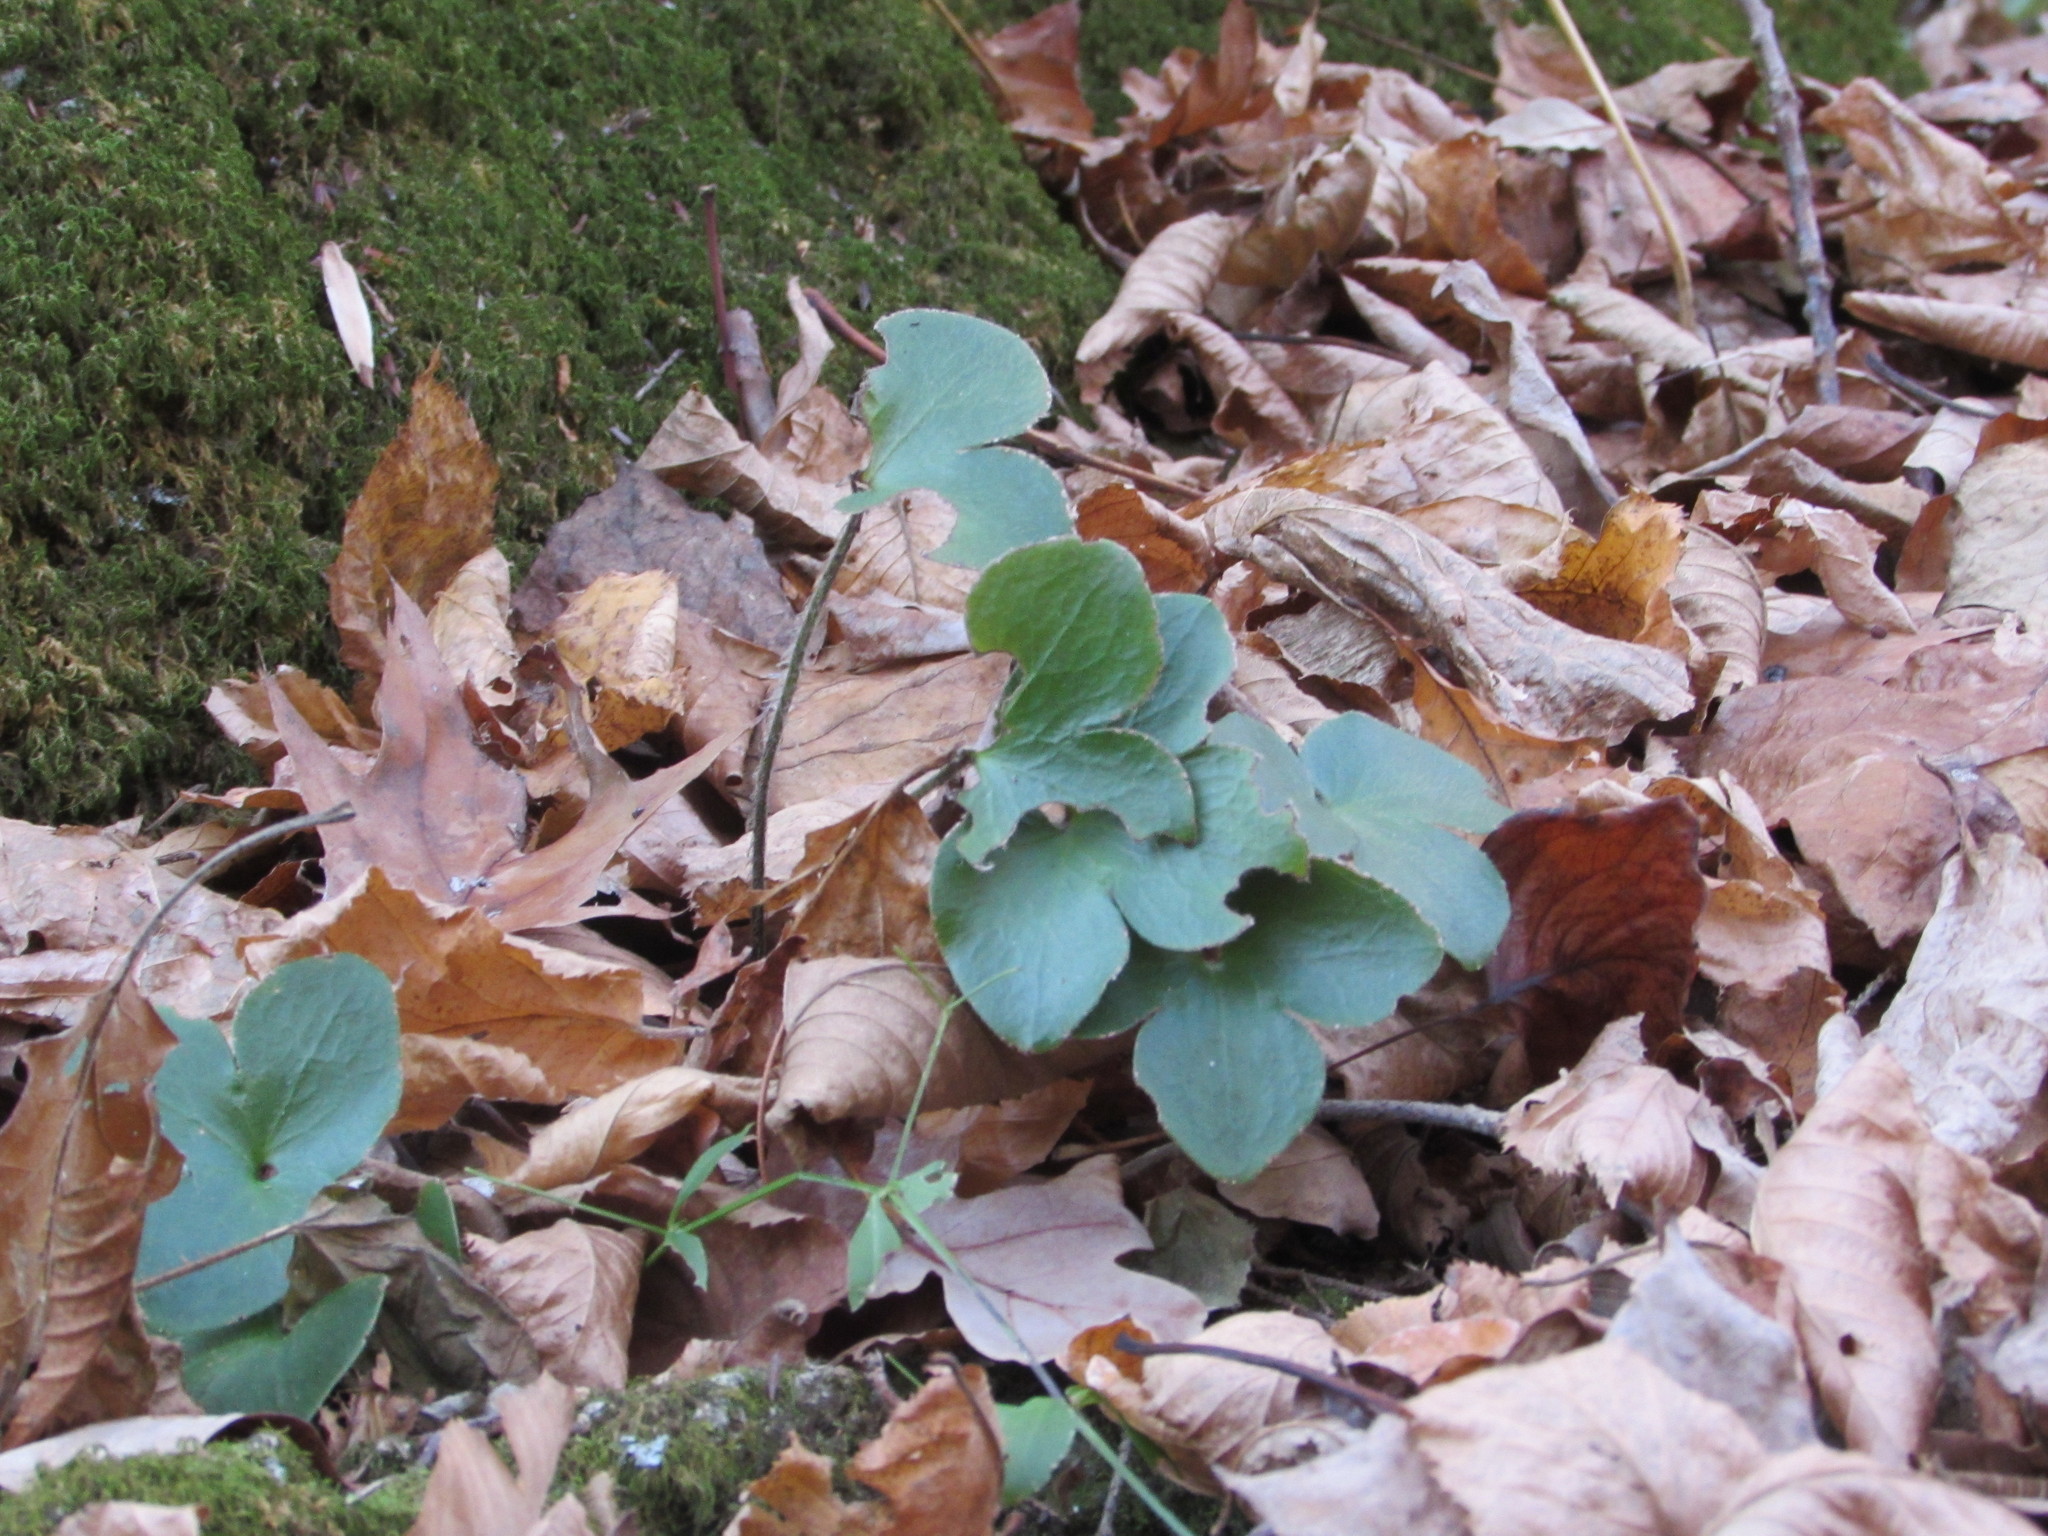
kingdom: Plantae
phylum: Tracheophyta
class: Magnoliopsida
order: Ranunculales
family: Ranunculaceae
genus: Hepatica
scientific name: Hepatica americana
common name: American hepatica
